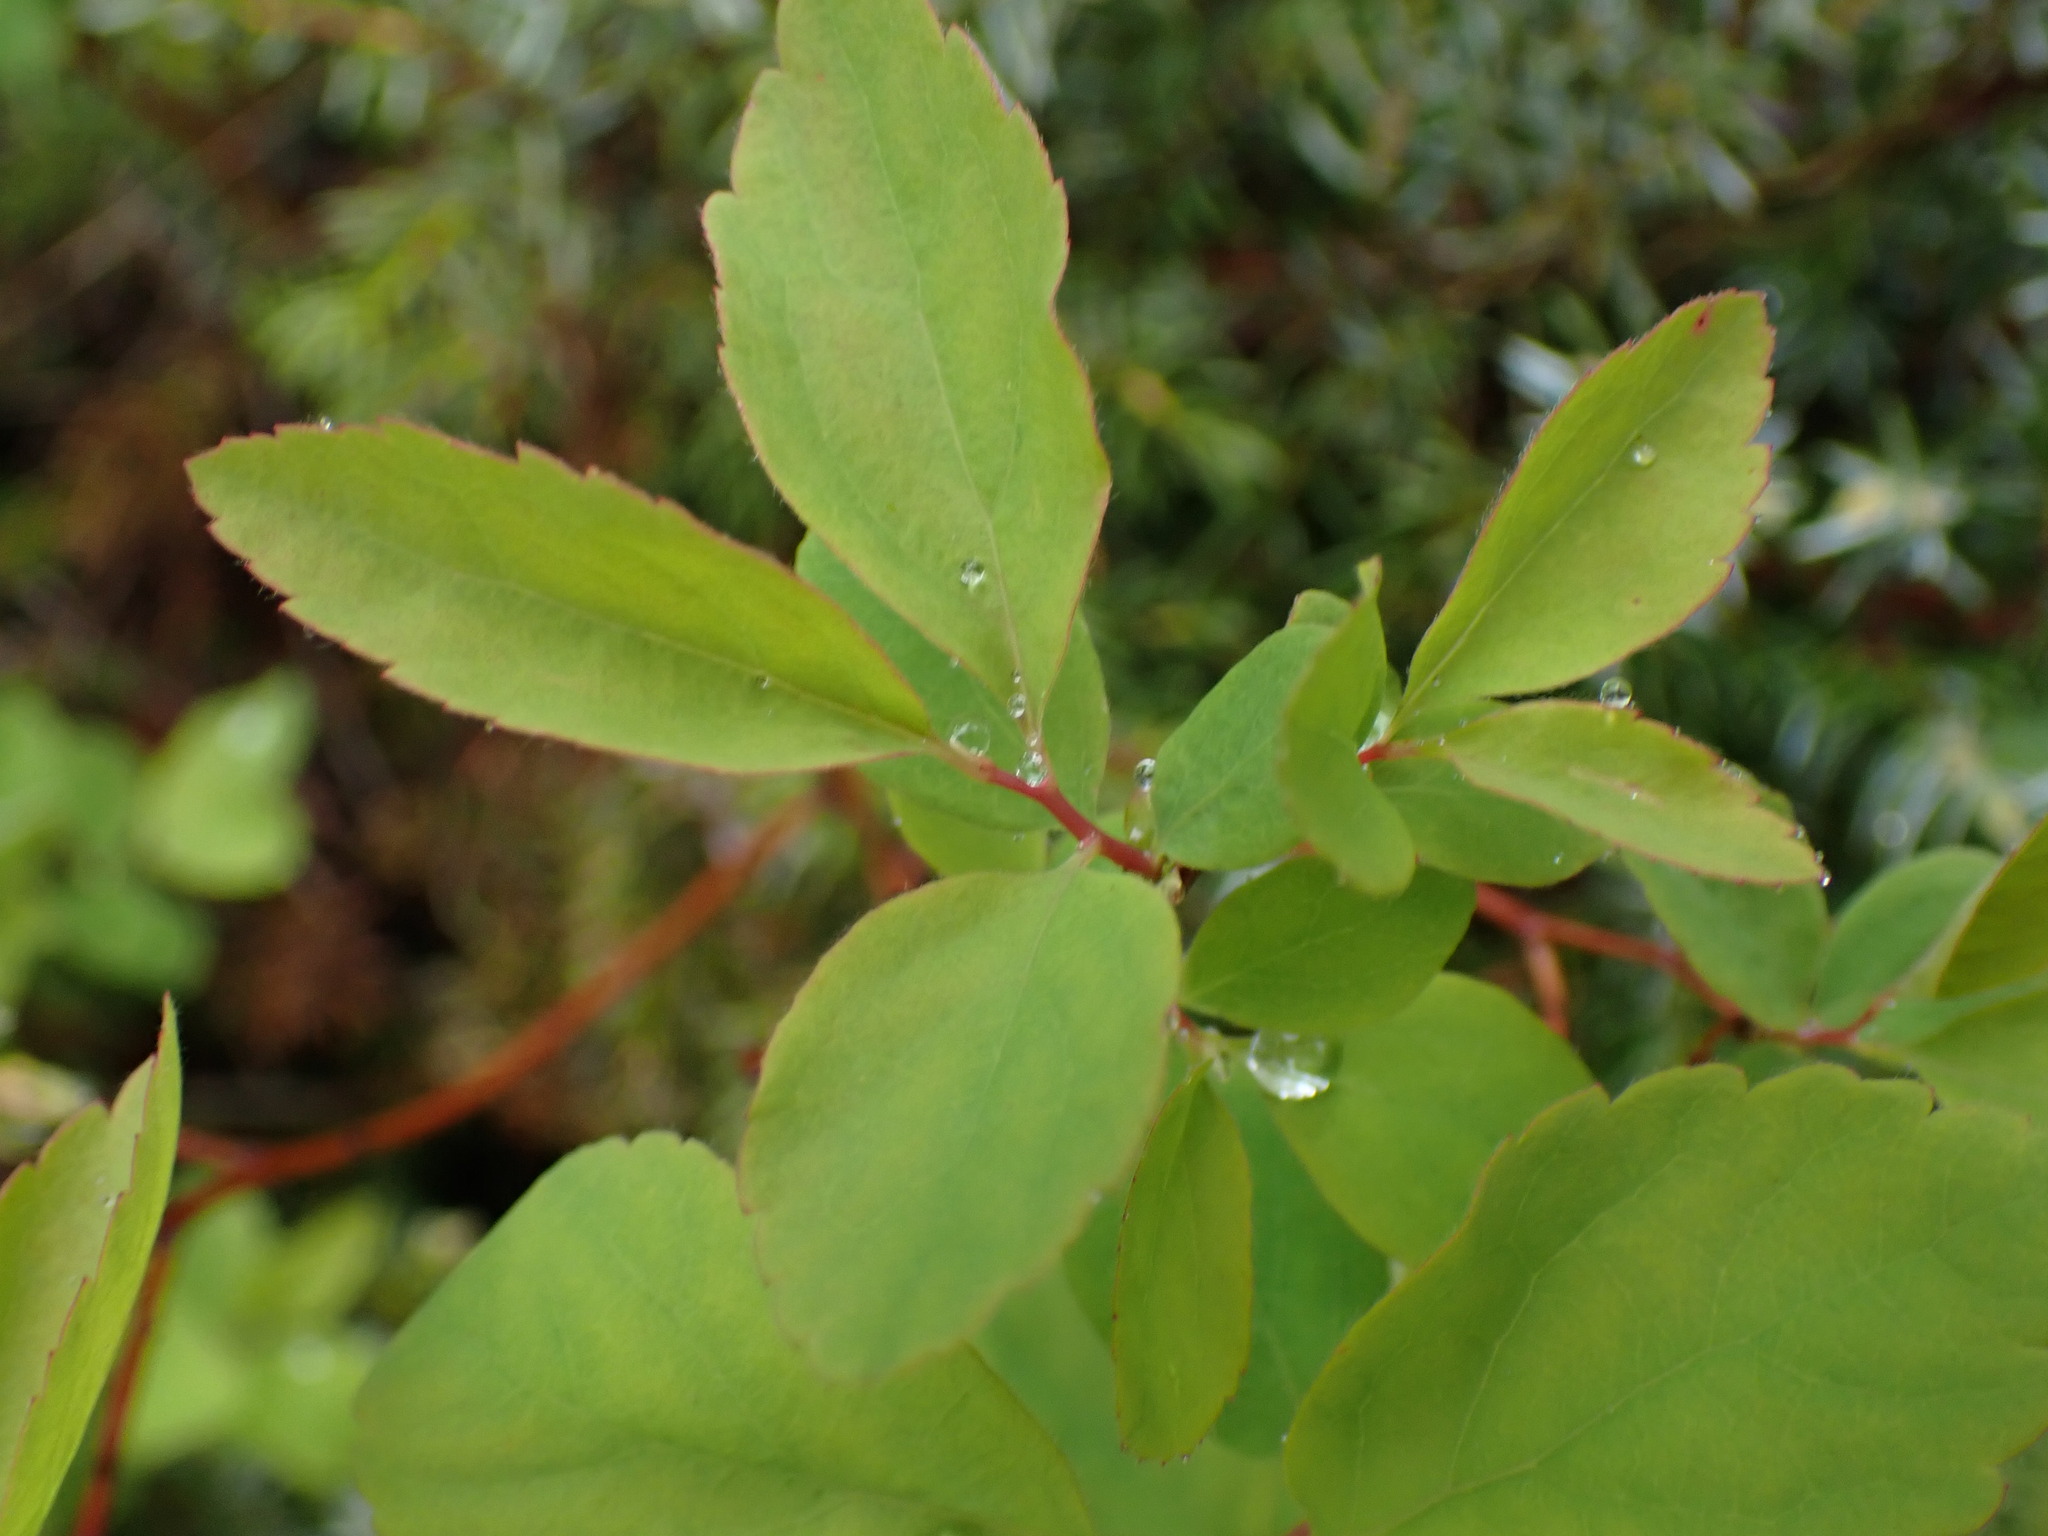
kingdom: Plantae
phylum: Tracheophyta
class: Magnoliopsida
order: Rosales
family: Rosaceae
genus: Spiraea
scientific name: Spiraea lucida
